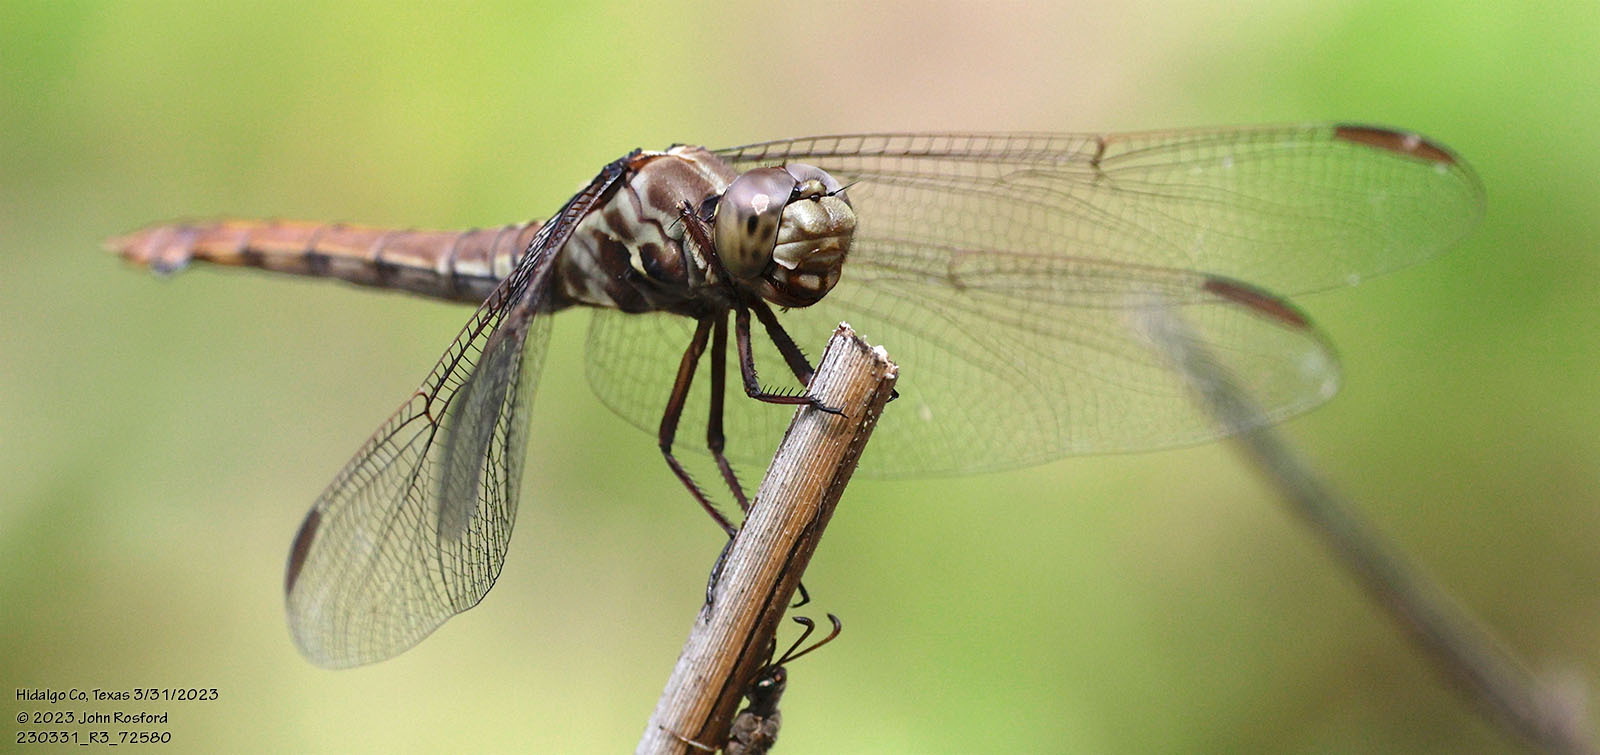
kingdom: Animalia
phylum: Arthropoda
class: Insecta
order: Odonata
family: Libellulidae
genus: Orthemis
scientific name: Orthemis ferruginea
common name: Roseate skimmer
